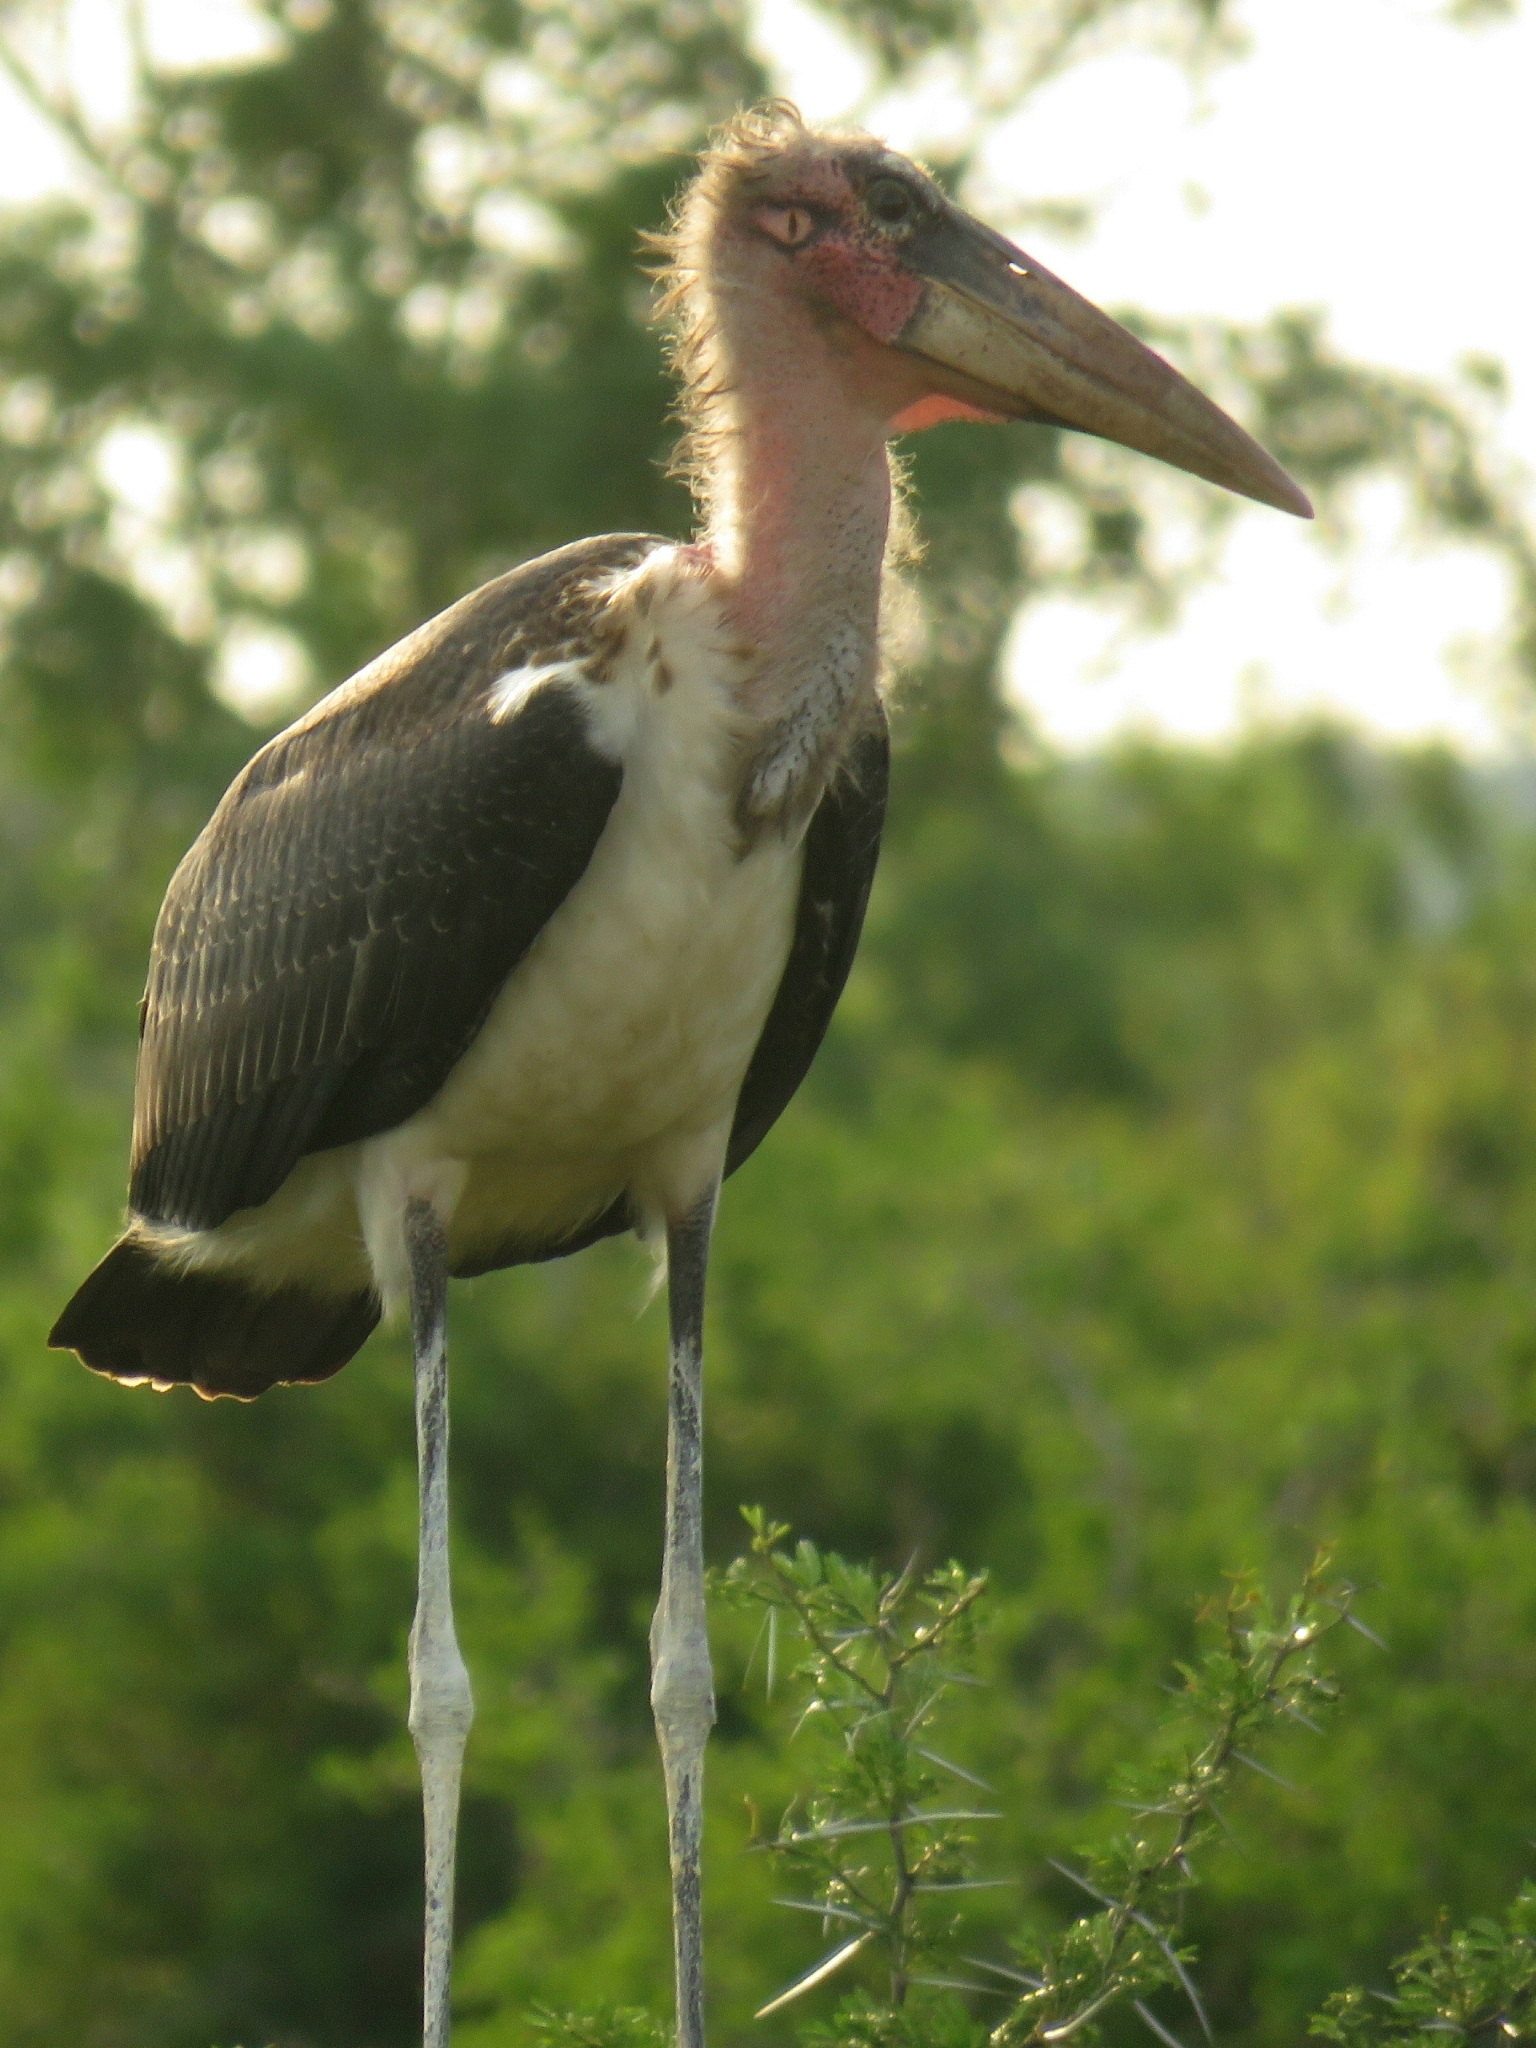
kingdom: Animalia
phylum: Chordata
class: Aves
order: Ciconiiformes
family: Ciconiidae
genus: Leptoptilos
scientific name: Leptoptilos crumenifer
